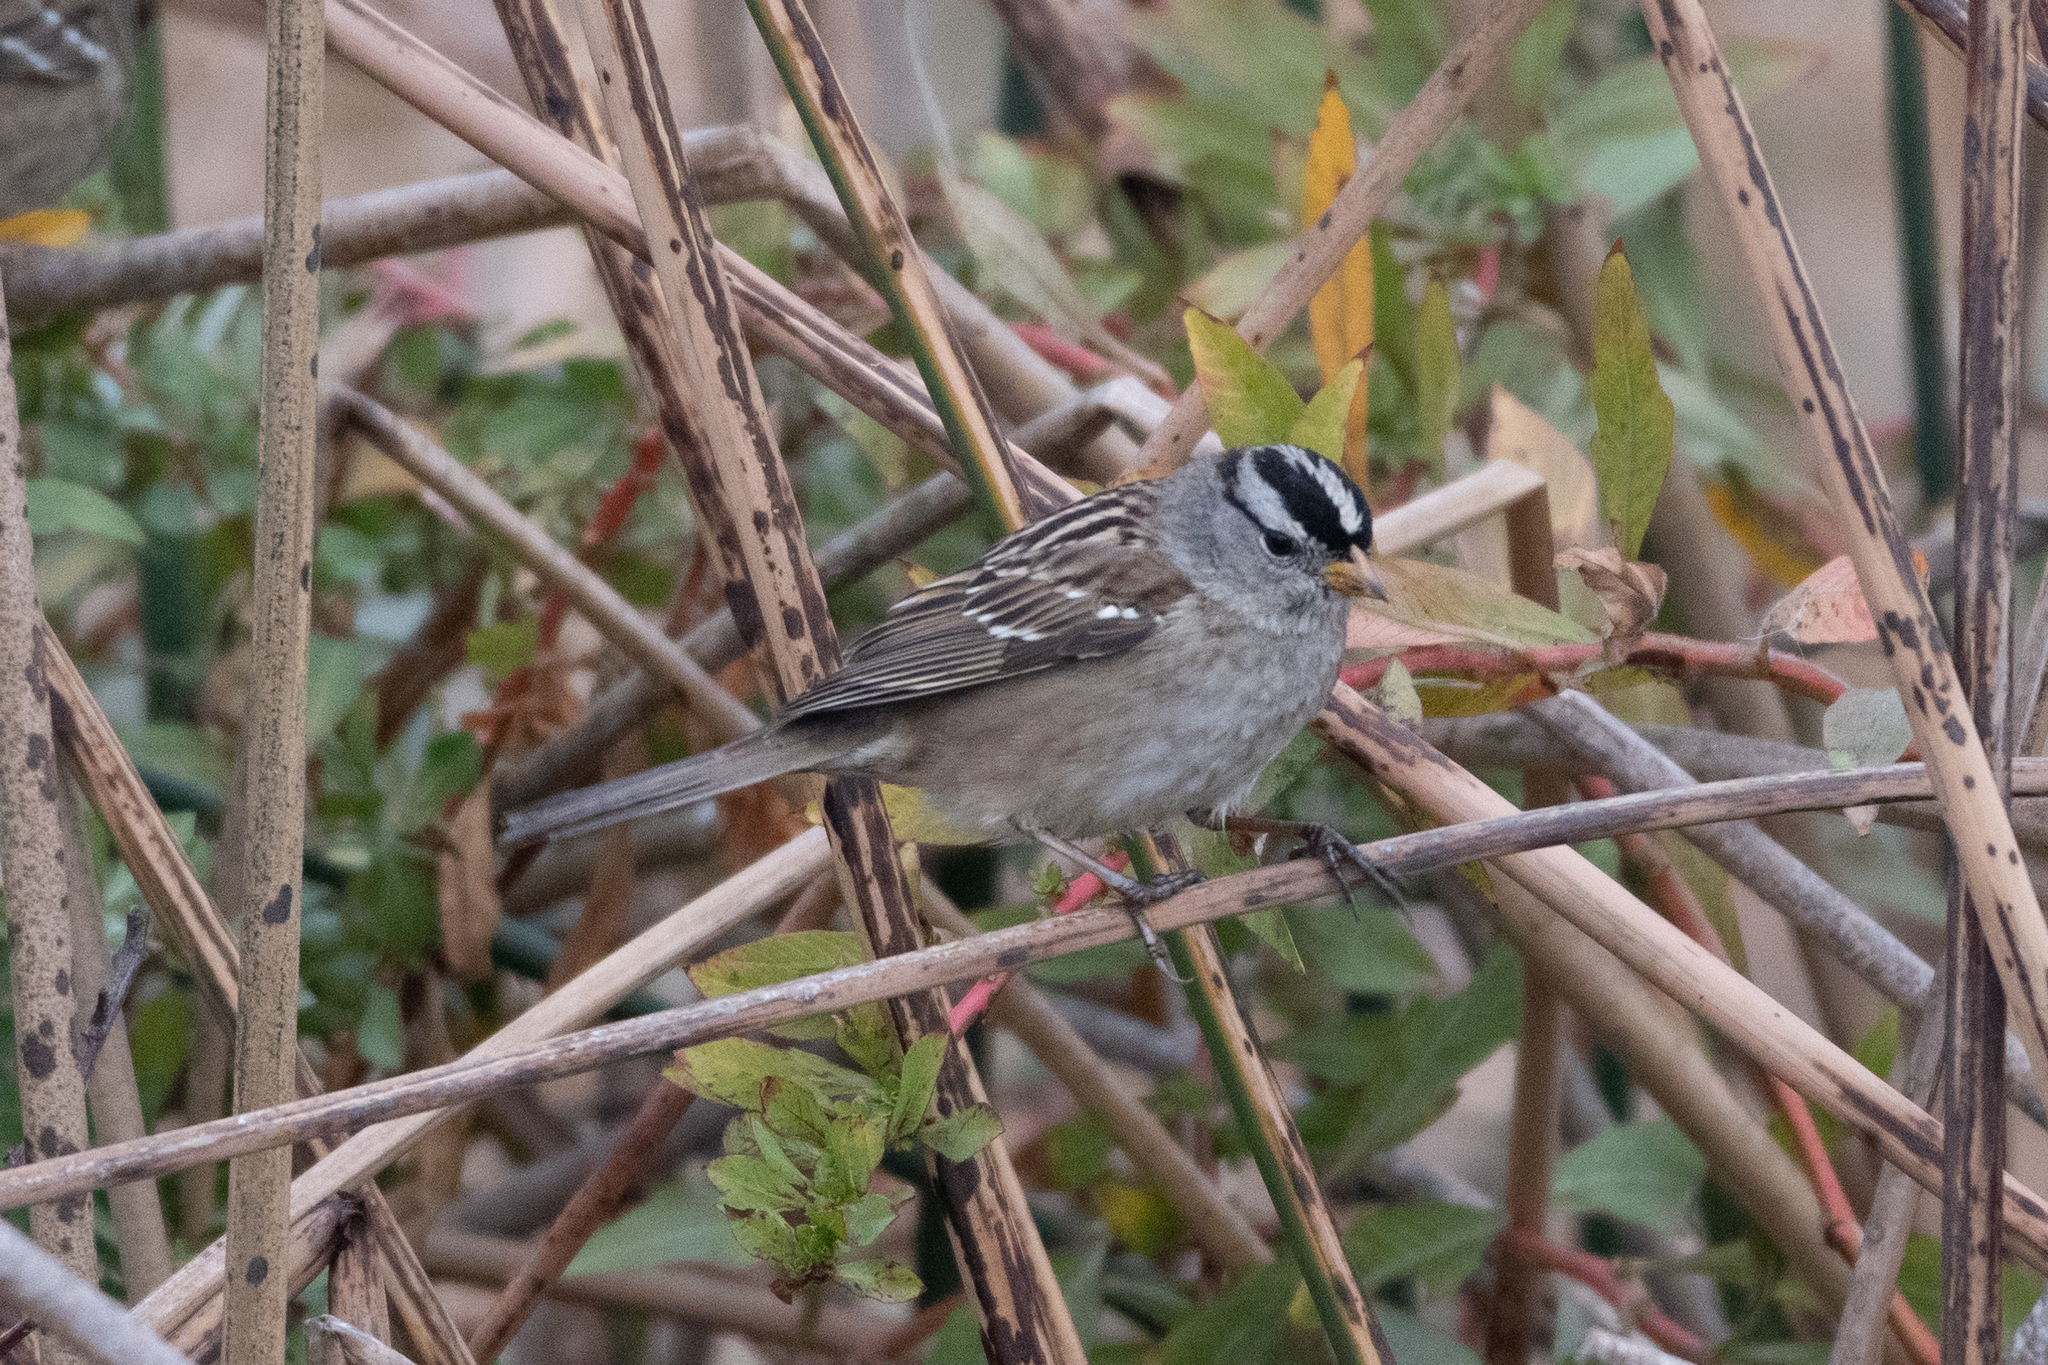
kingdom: Animalia
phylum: Chordata
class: Aves
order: Passeriformes
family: Passerellidae
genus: Zonotrichia
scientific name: Zonotrichia leucophrys
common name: White-crowned sparrow
